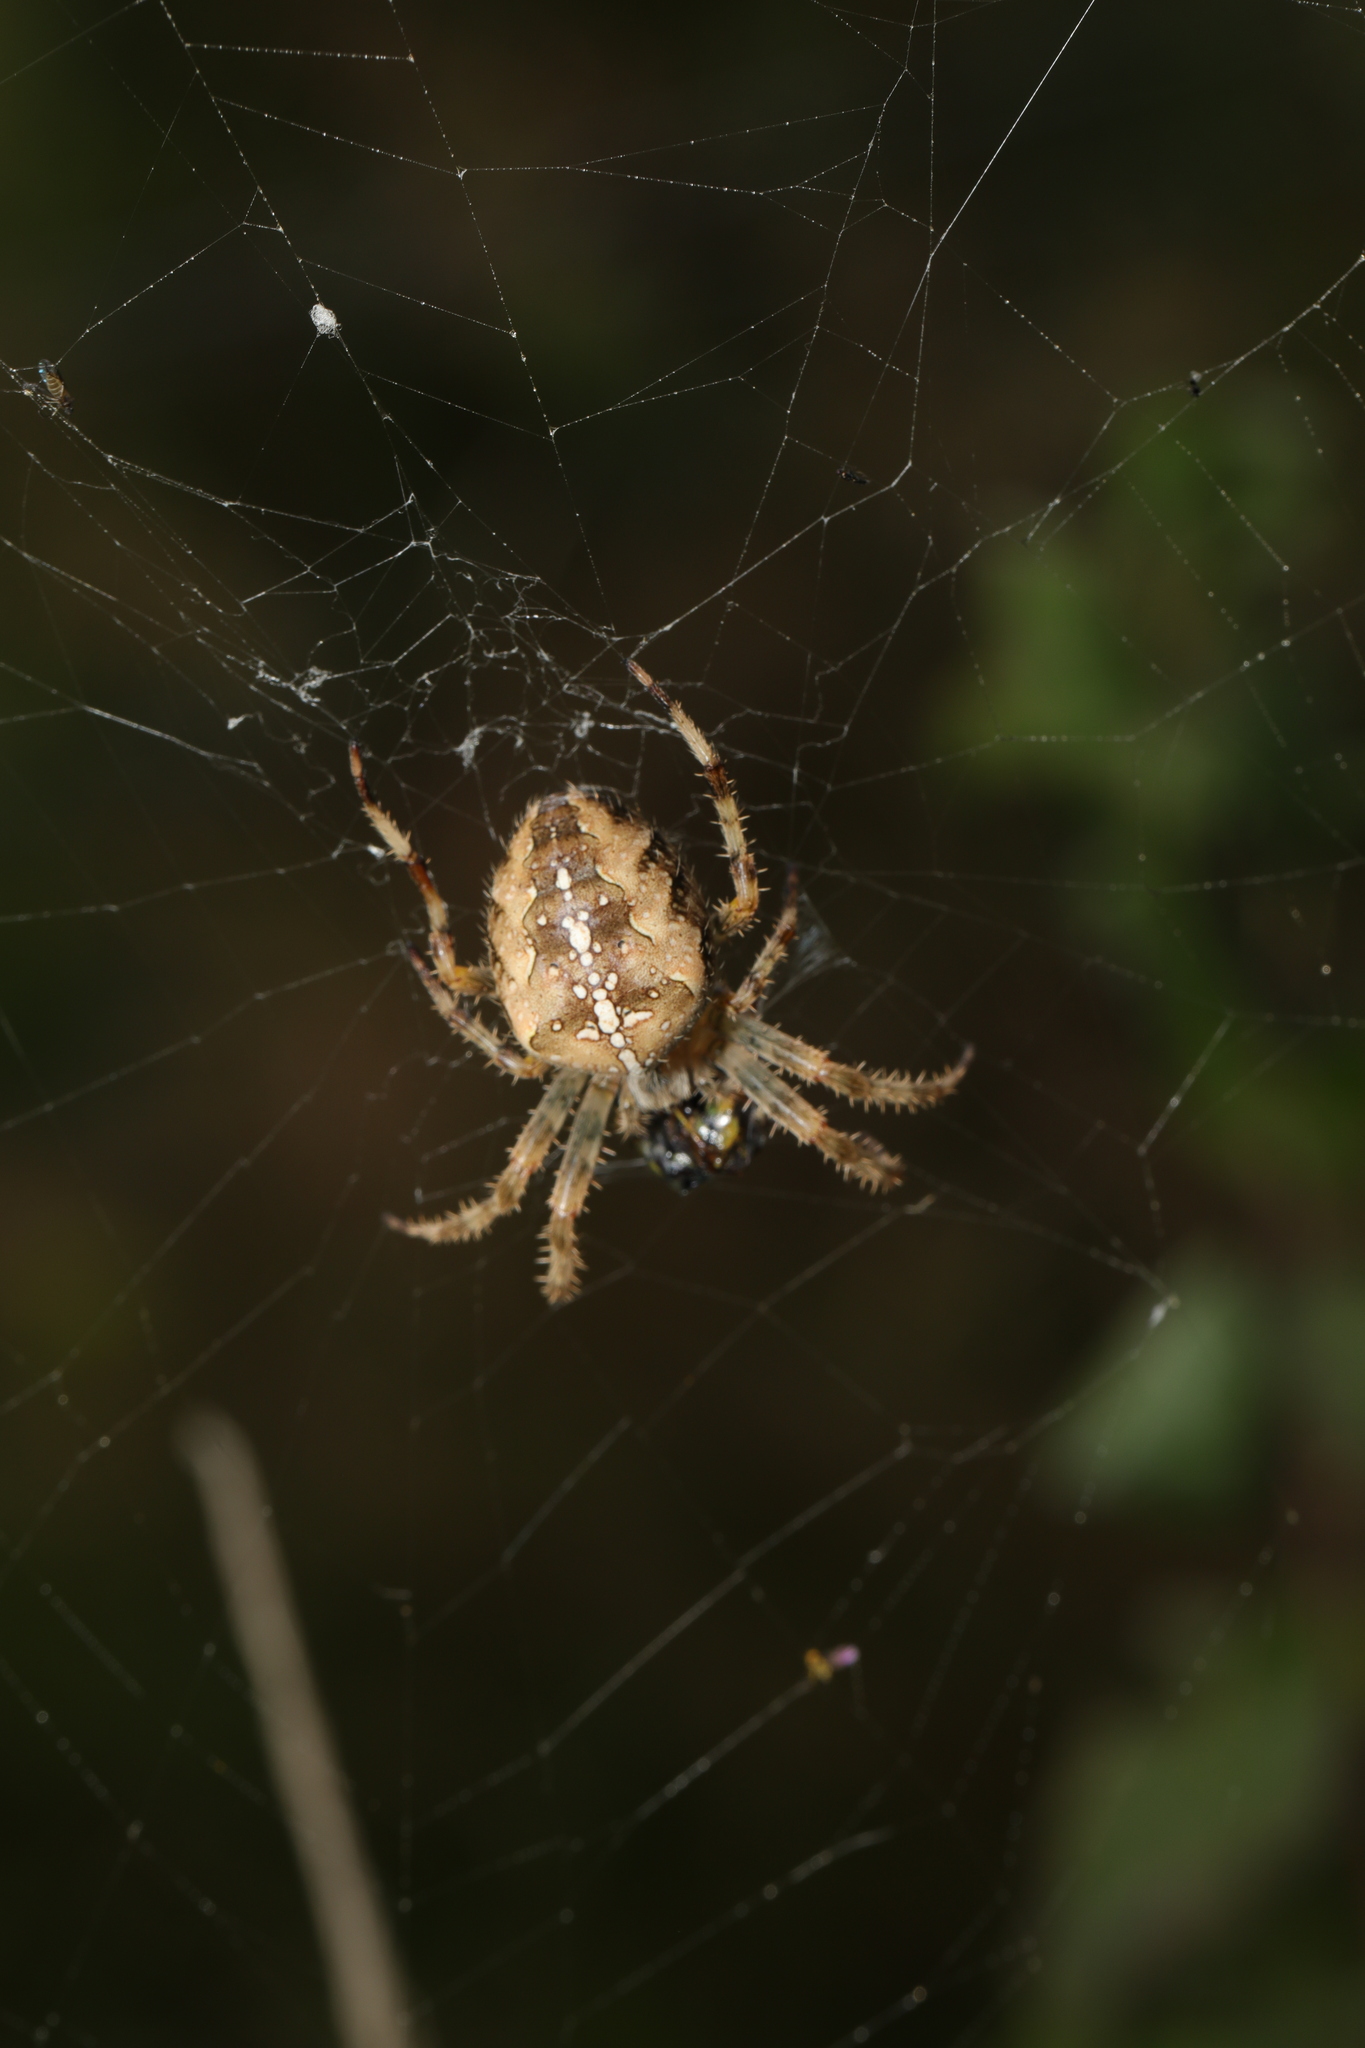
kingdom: Animalia
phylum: Arthropoda
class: Arachnida
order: Araneae
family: Araneidae
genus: Araneus
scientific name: Araneus diadematus
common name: Cross orbweaver
